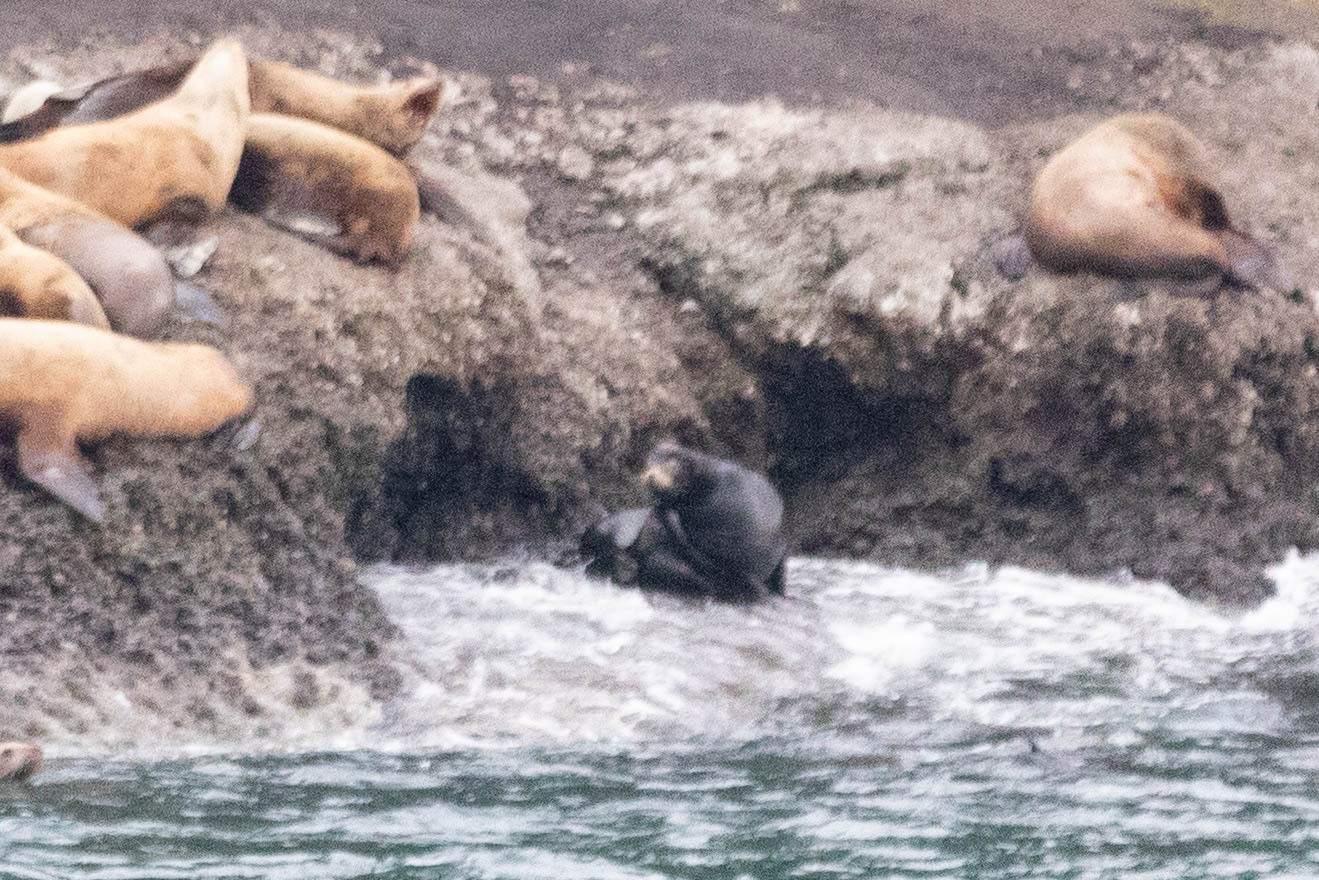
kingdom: Animalia
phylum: Chordata
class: Mammalia
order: Carnivora
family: Otariidae
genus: Zalophus
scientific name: Zalophus californianus
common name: California sea lion
